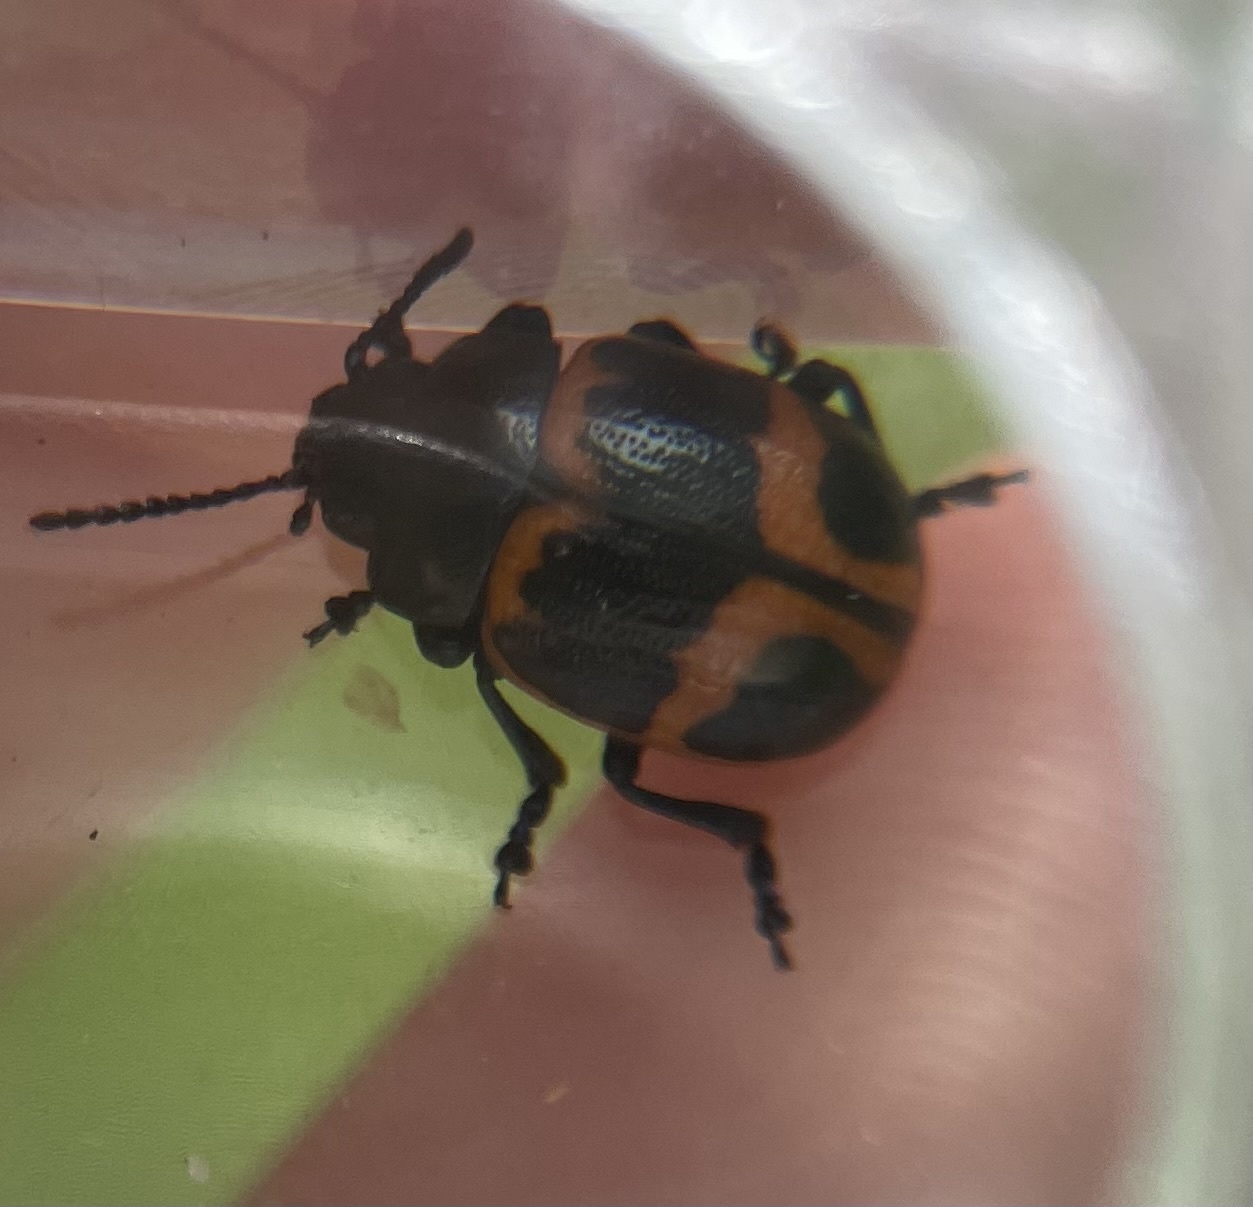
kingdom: Animalia
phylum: Arthropoda
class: Insecta
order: Coleoptera
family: Chrysomelidae
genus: Labidomera
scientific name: Labidomera clivicollis
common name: Swamp milkweed leaf beetle
